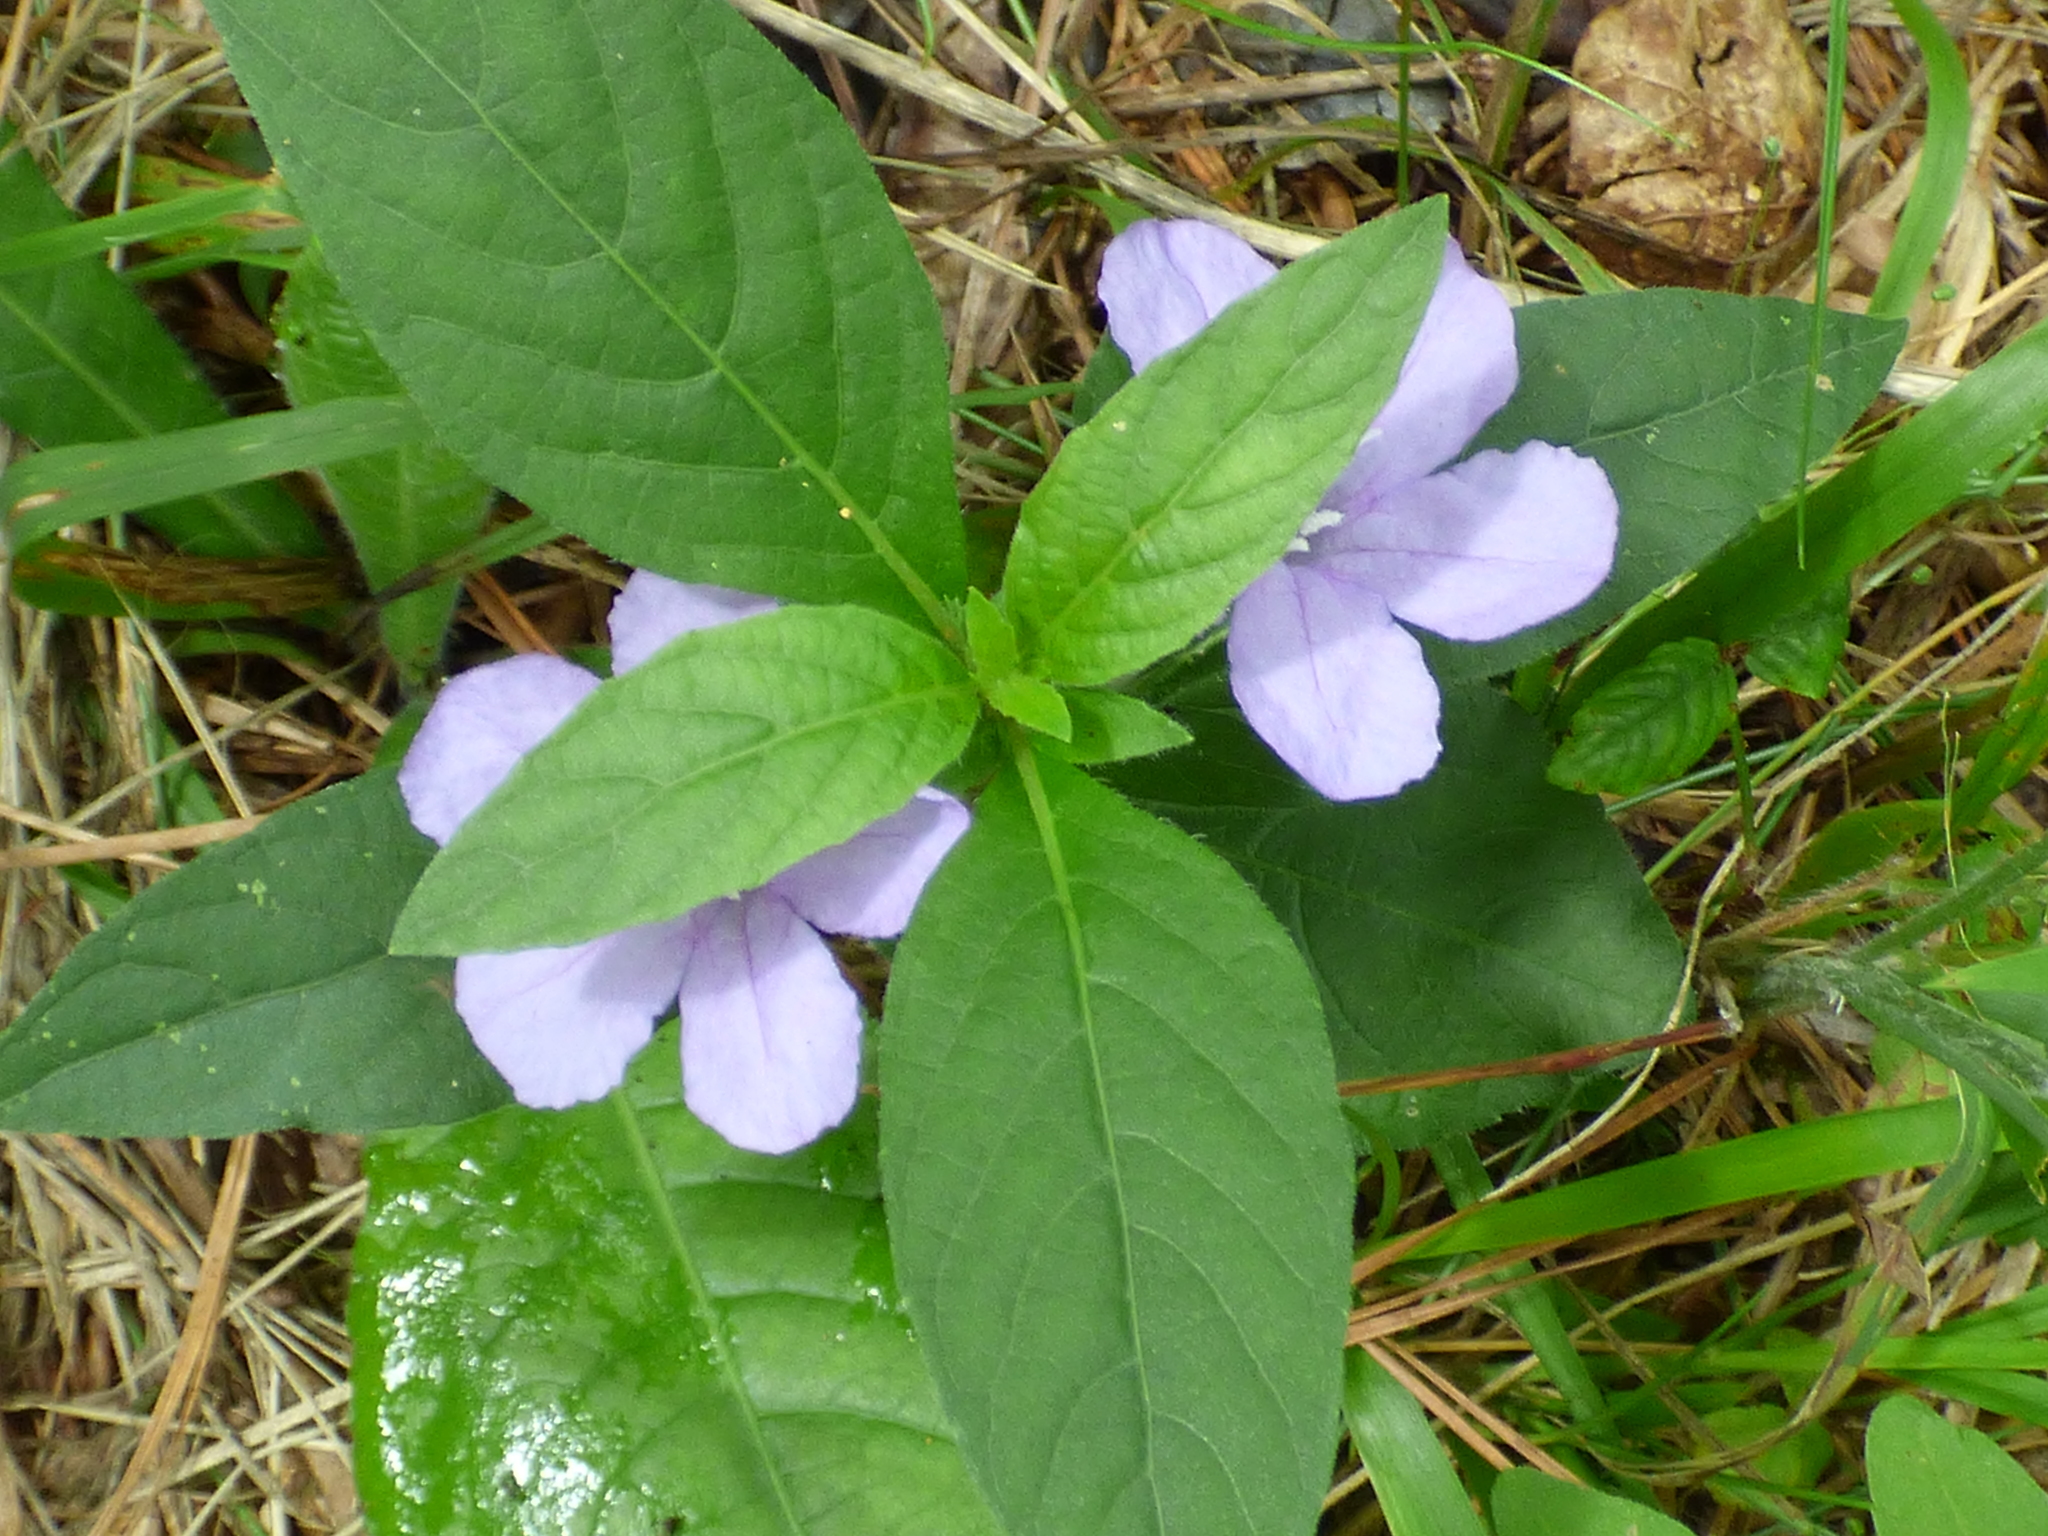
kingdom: Plantae
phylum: Tracheophyta
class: Magnoliopsida
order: Lamiales
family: Acanthaceae
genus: Ruellia
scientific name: Ruellia caroliniensis
